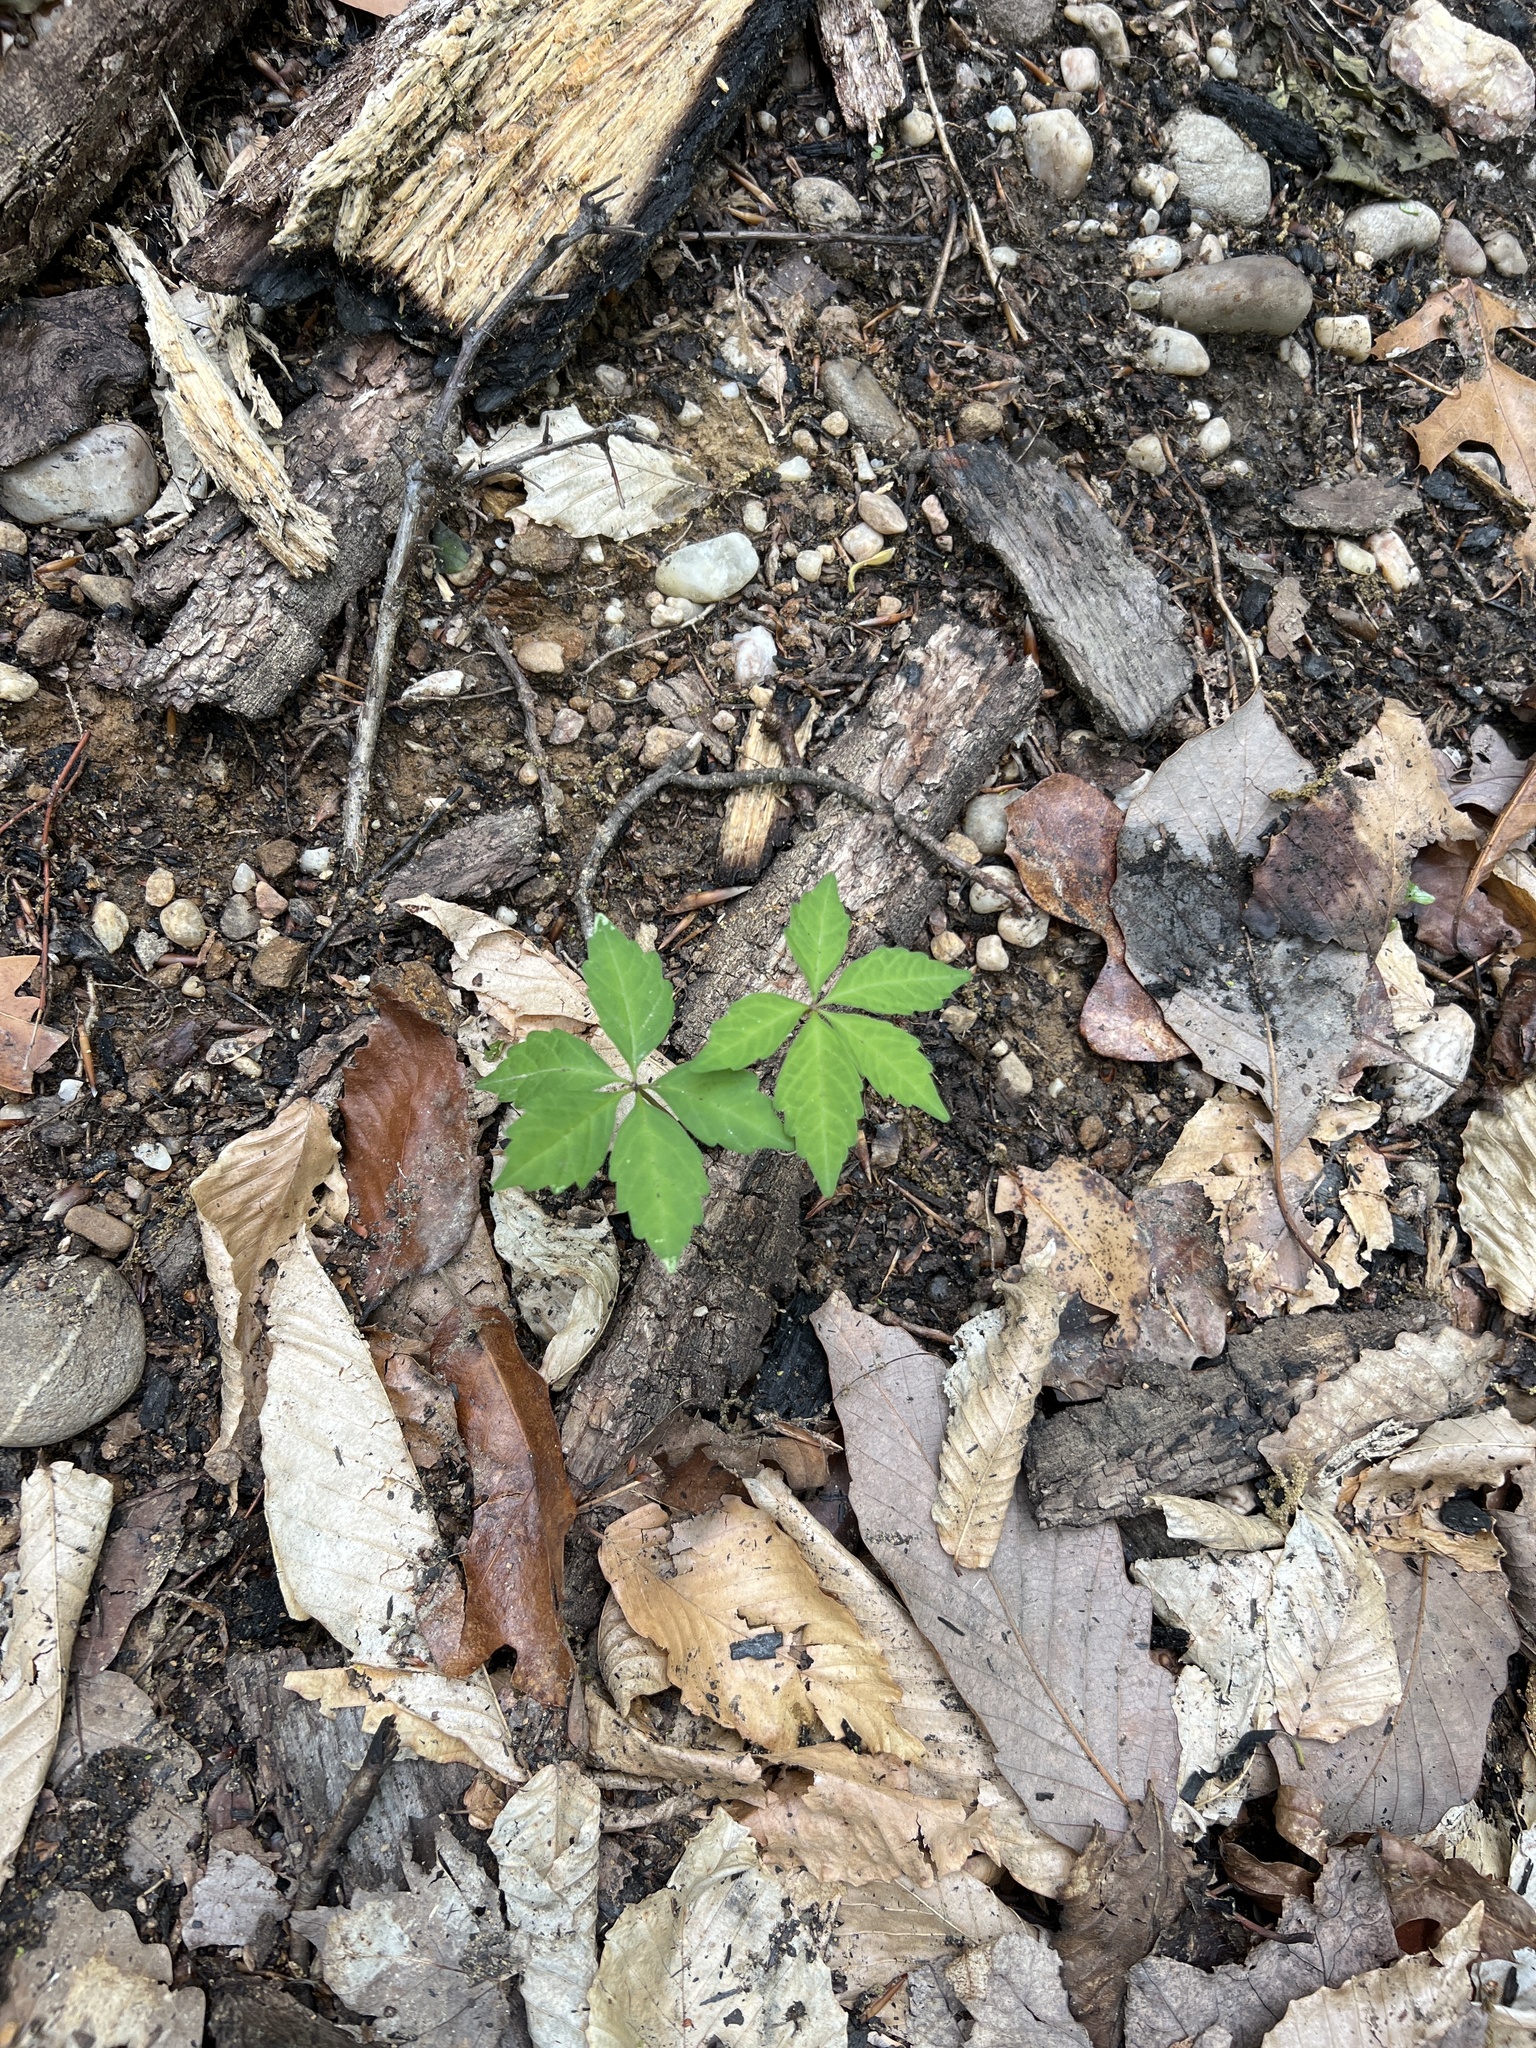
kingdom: Plantae
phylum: Tracheophyta
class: Magnoliopsida
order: Vitales
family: Vitaceae
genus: Parthenocissus
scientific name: Parthenocissus quinquefolia
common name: Virginia-creeper
